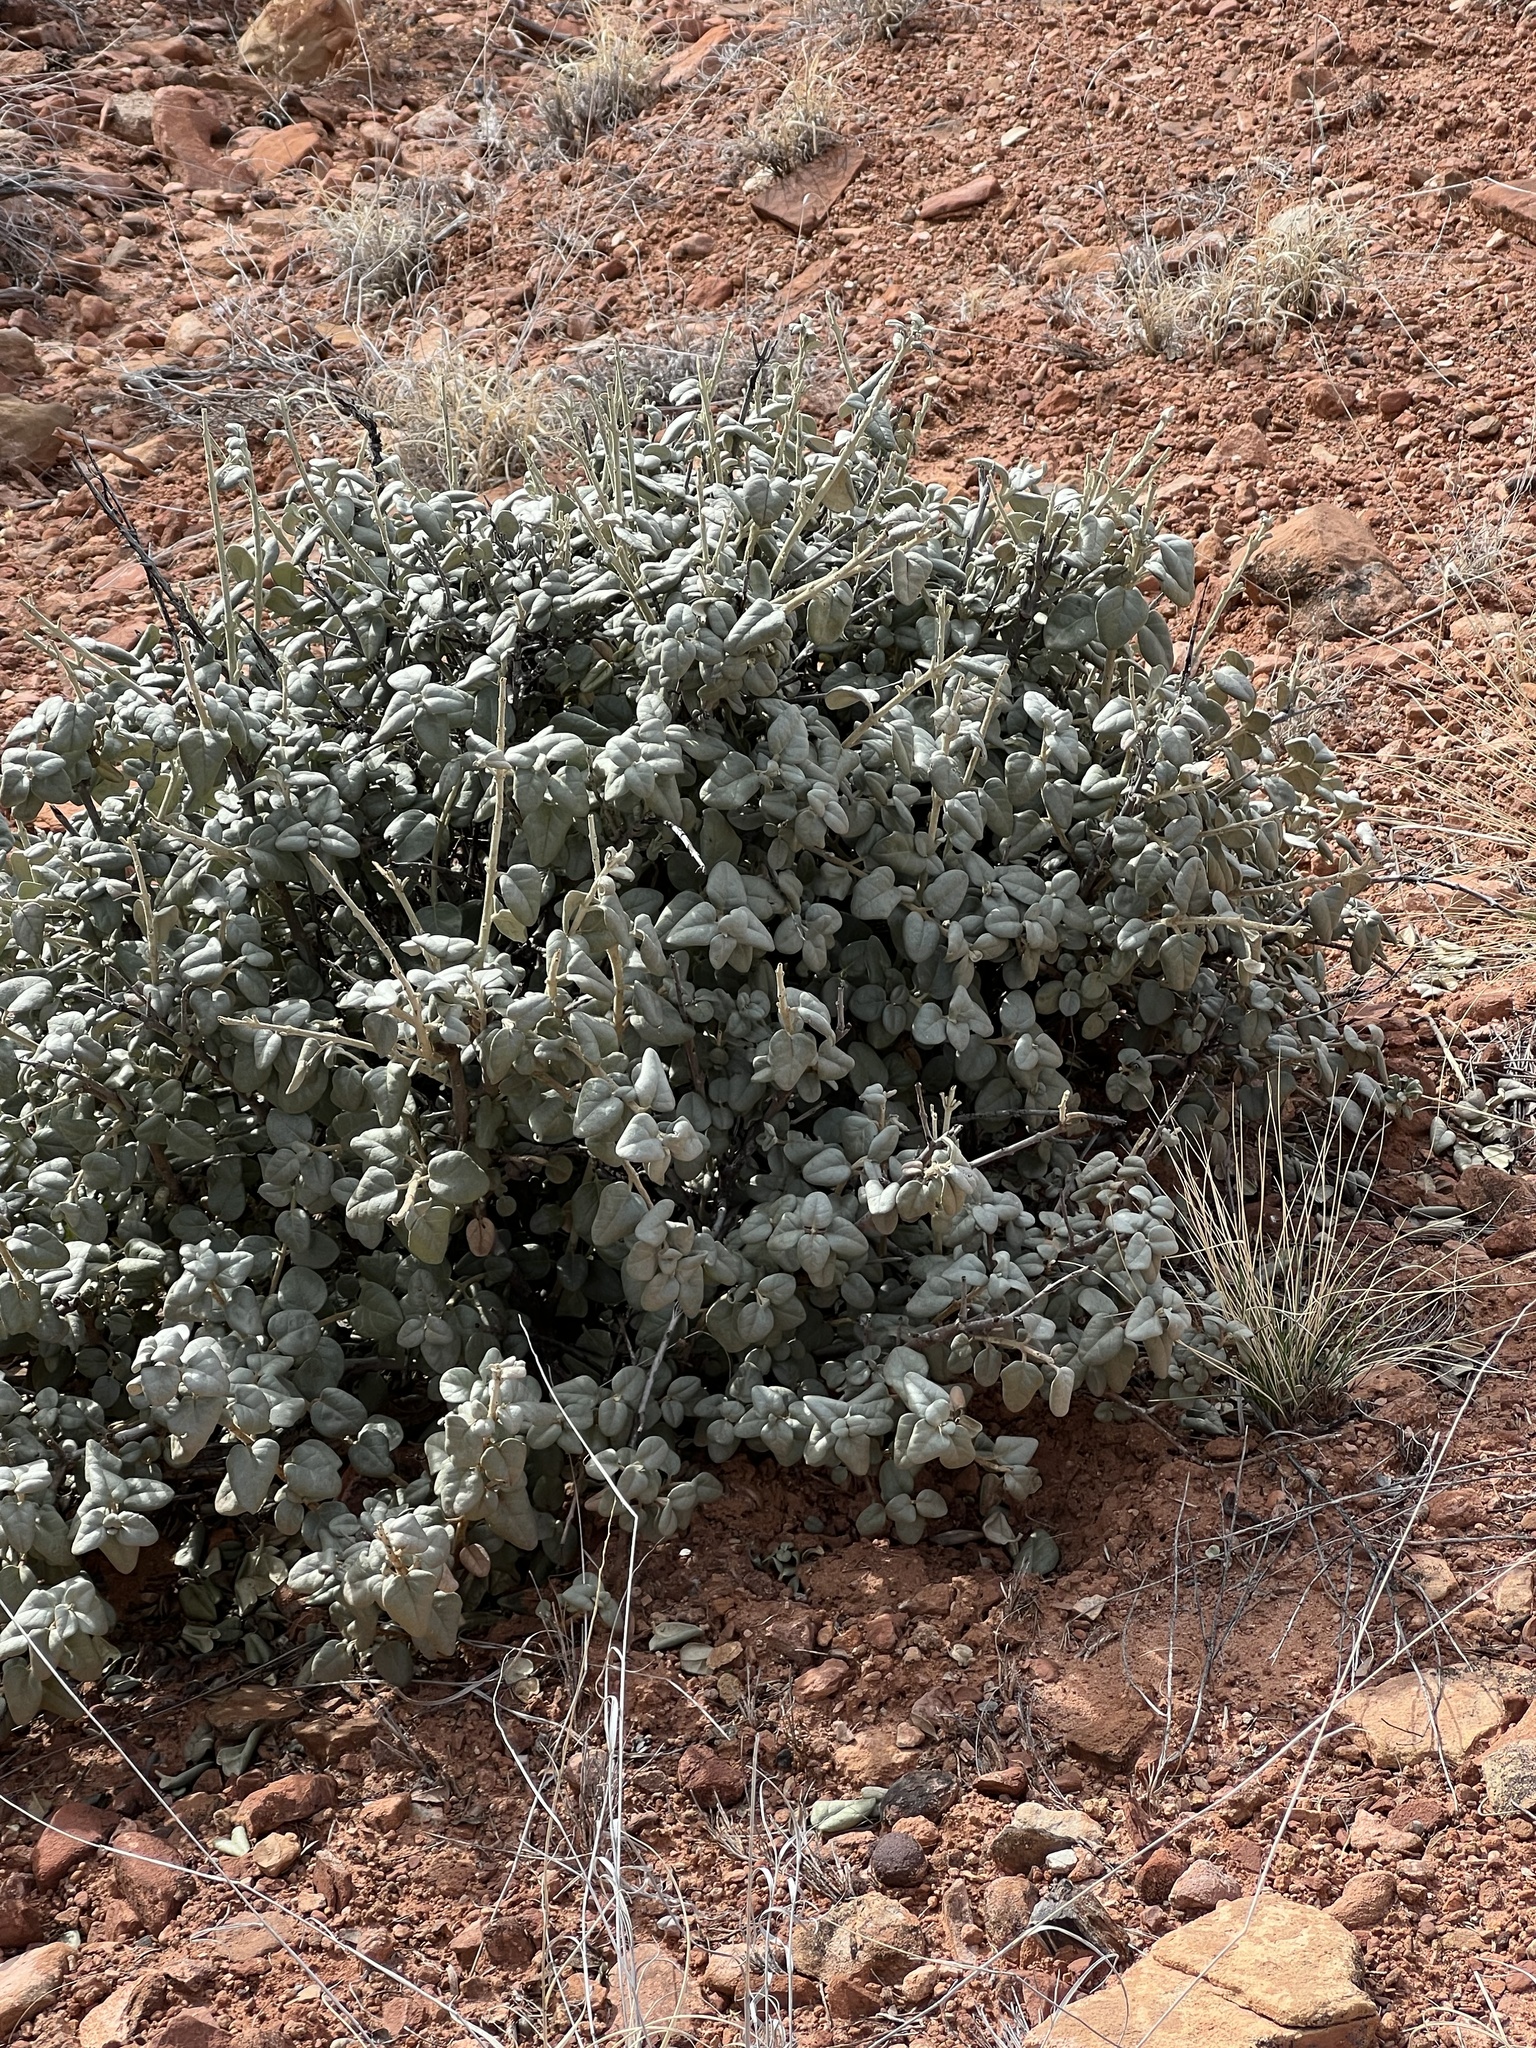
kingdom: Plantae
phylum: Tracheophyta
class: Magnoliopsida
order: Rosales
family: Elaeagnaceae
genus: Shepherdia
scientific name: Shepherdia rotundifolia
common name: Silverscale
